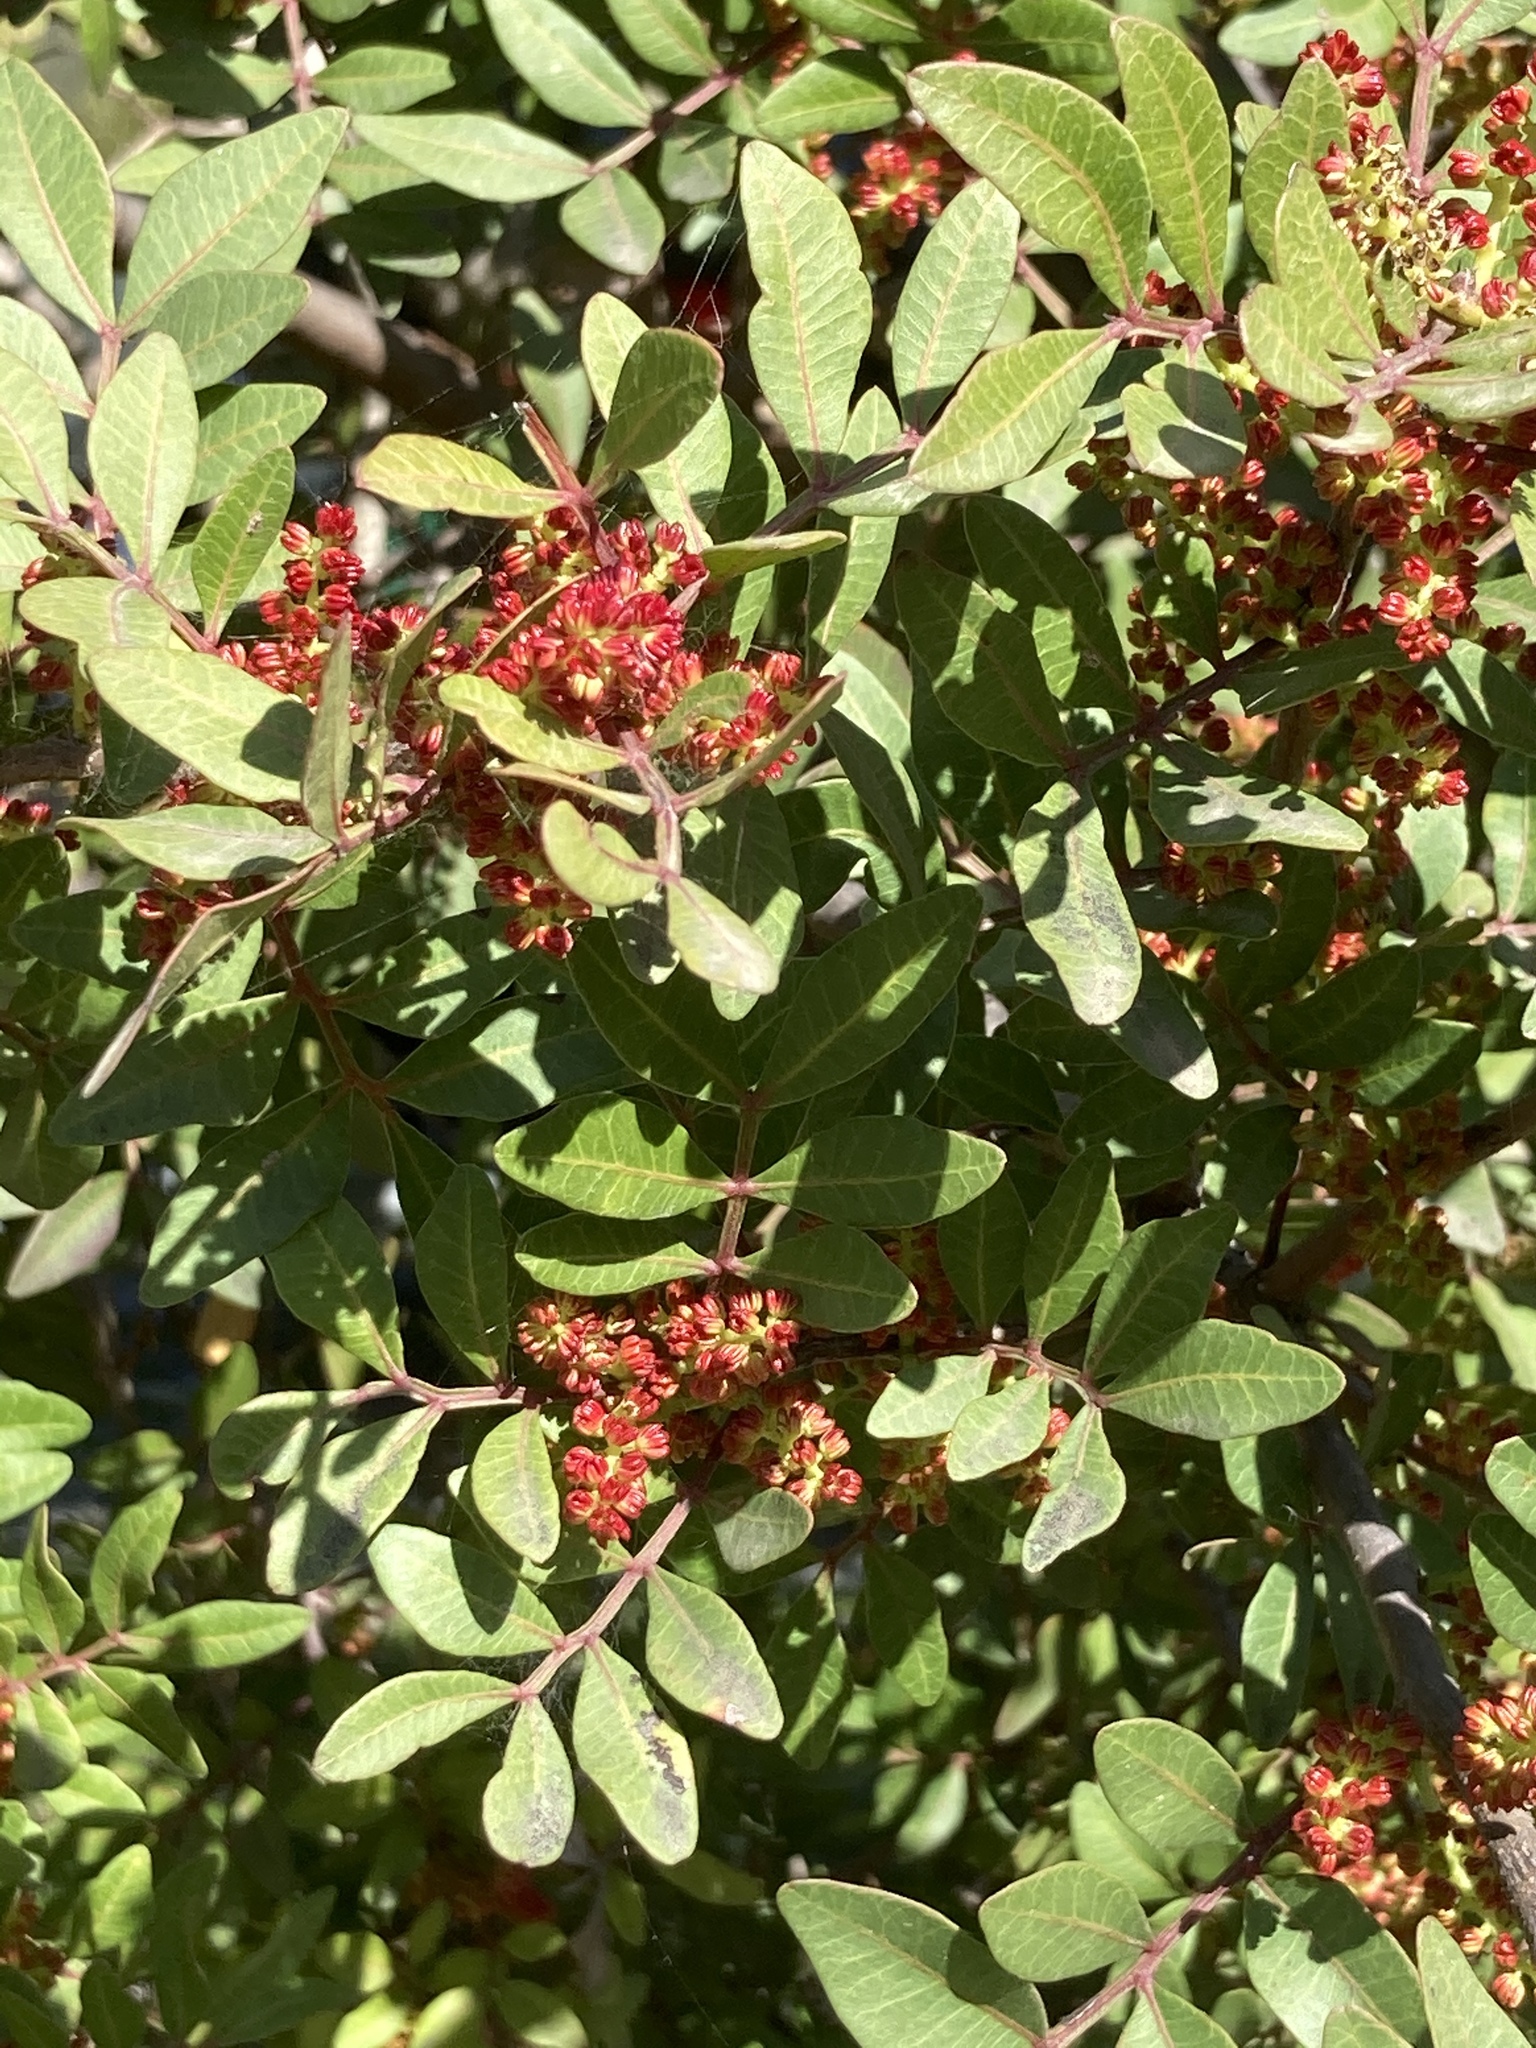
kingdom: Plantae
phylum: Tracheophyta
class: Magnoliopsida
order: Sapindales
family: Anacardiaceae
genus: Pistacia
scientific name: Pistacia lentiscus
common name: Lentisk
